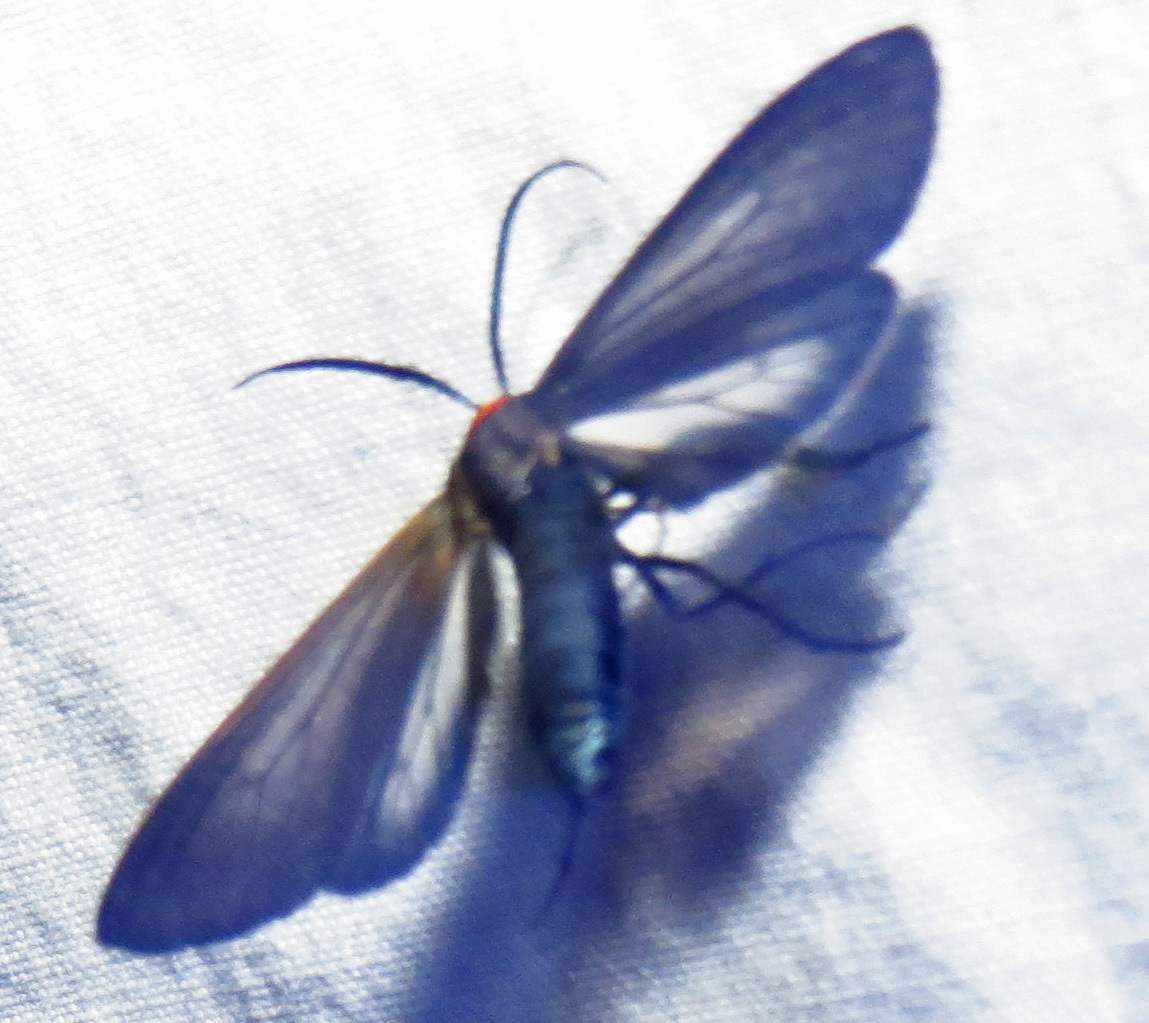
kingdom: Animalia
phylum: Arthropoda
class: Insecta
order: Lepidoptera
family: Erebidae
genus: Cisseps
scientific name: Cisseps fulvicollis
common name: Yellow-collared scape moth
